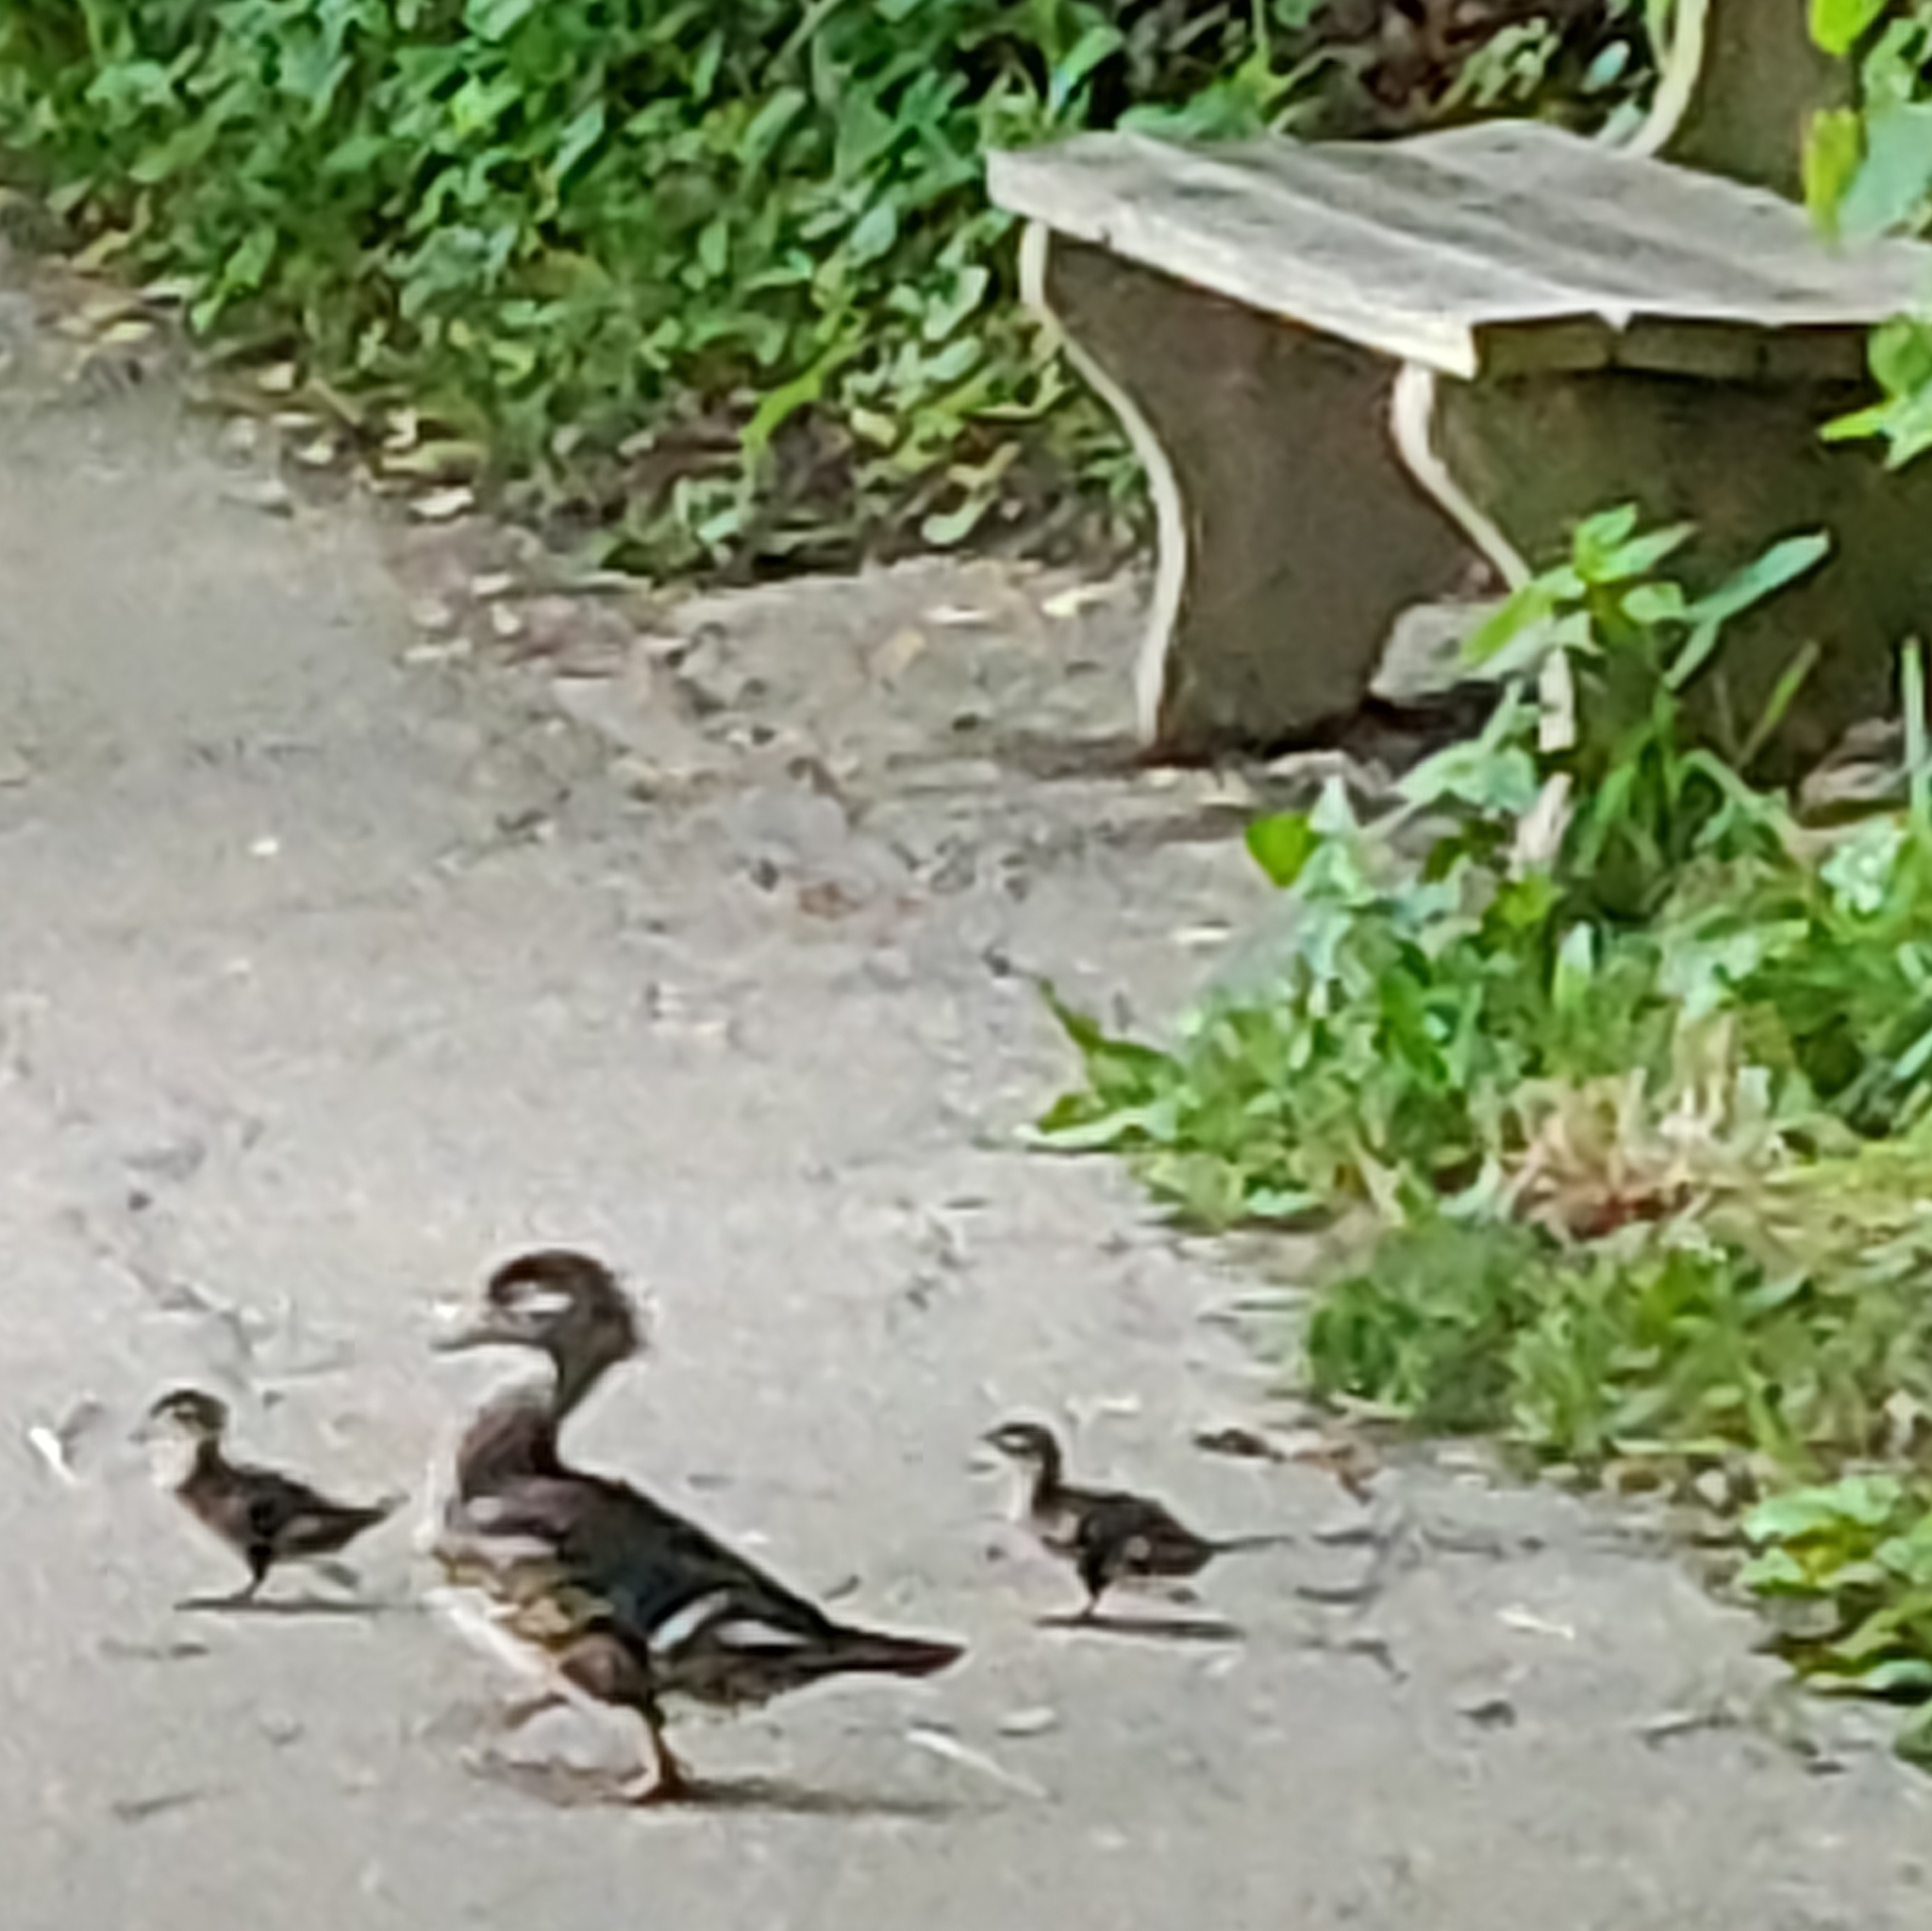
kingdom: Animalia
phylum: Chordata
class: Aves
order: Anseriformes
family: Anatidae
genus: Aix
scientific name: Aix sponsa
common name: Wood duck
